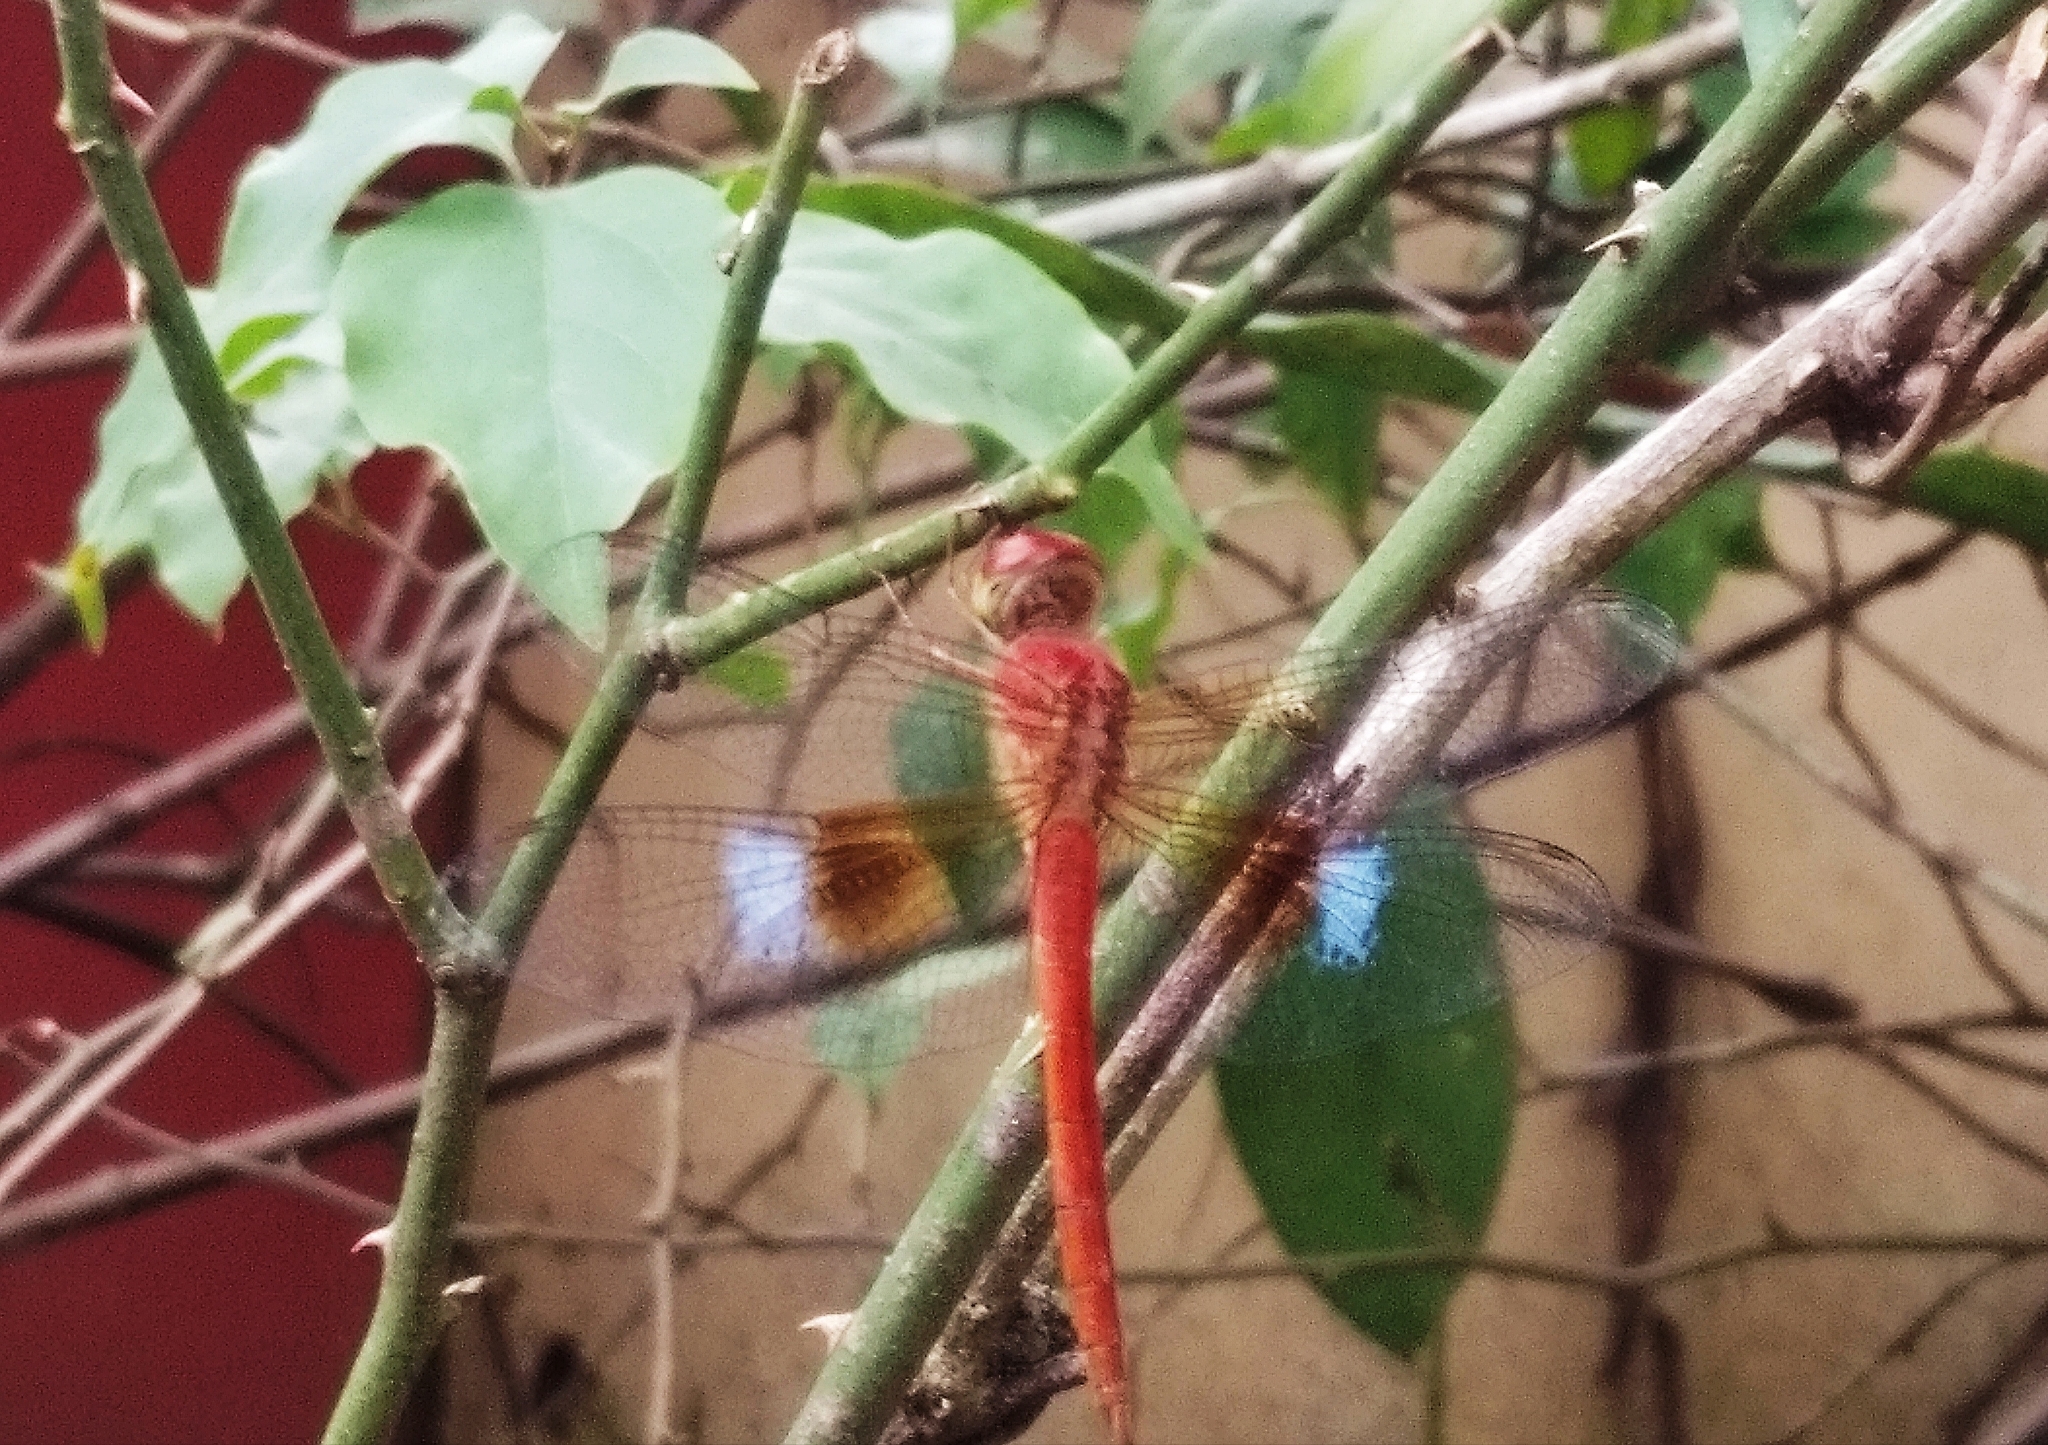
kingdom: Animalia
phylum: Arthropoda
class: Insecta
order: Odonata
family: Libellulidae
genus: Tholymis
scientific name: Tholymis tillarga
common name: Coral-tailed cloud wing
